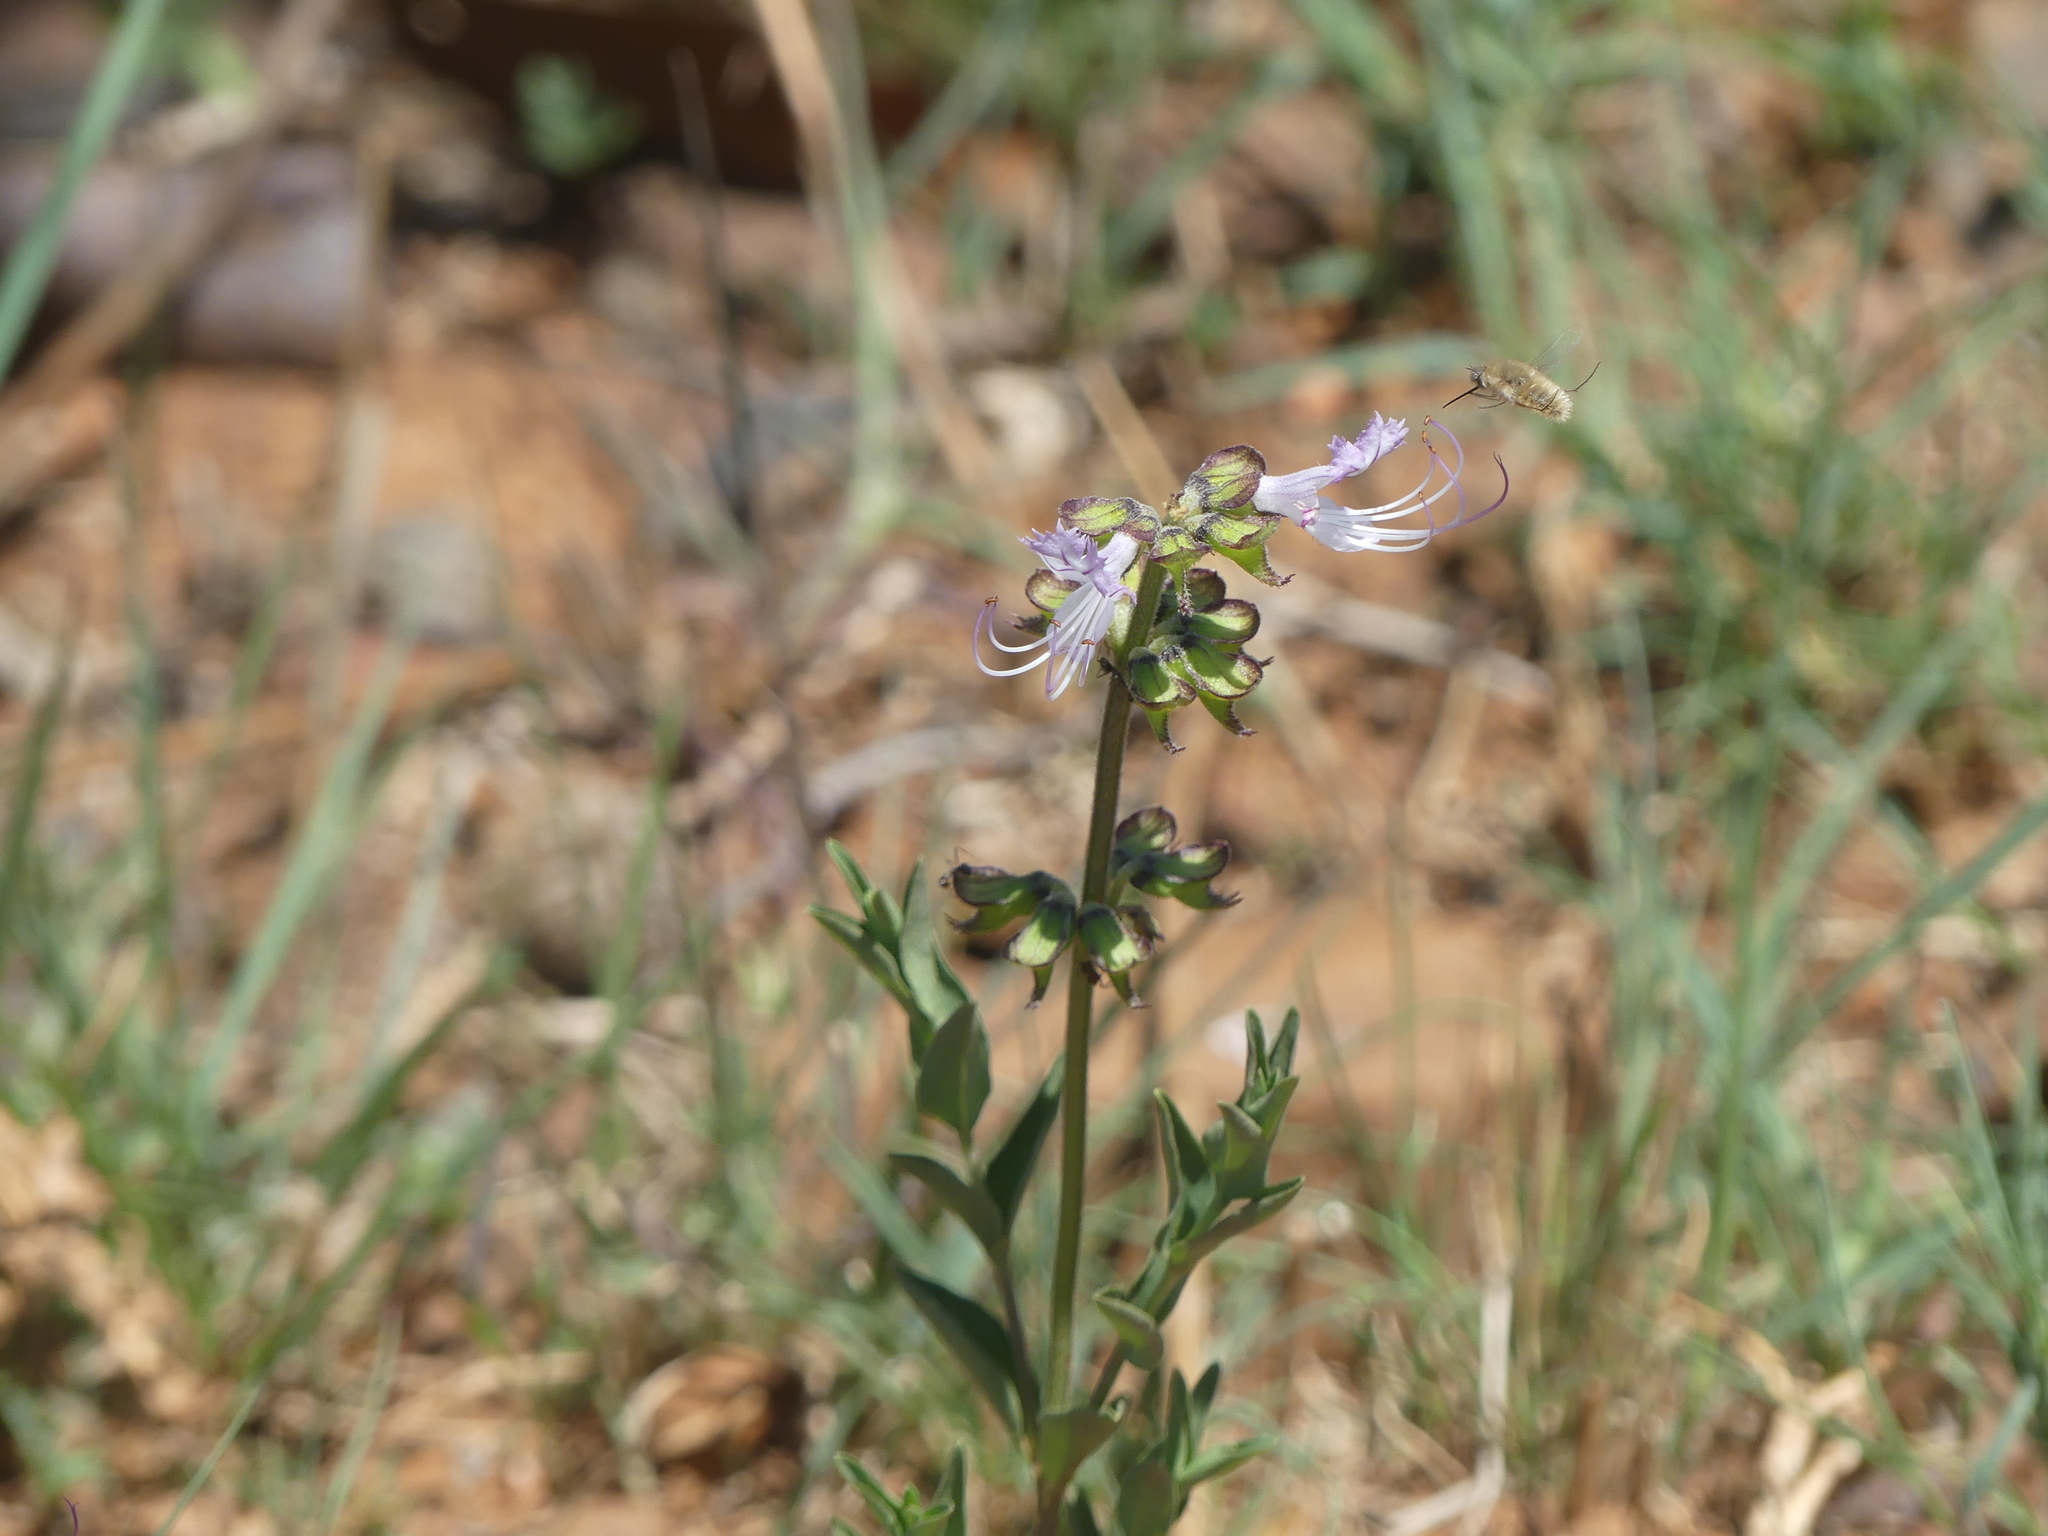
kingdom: Plantae
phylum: Tracheophyta
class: Magnoliopsida
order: Lamiales
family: Lamiaceae
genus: Ocimum
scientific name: Ocimum obovatum
